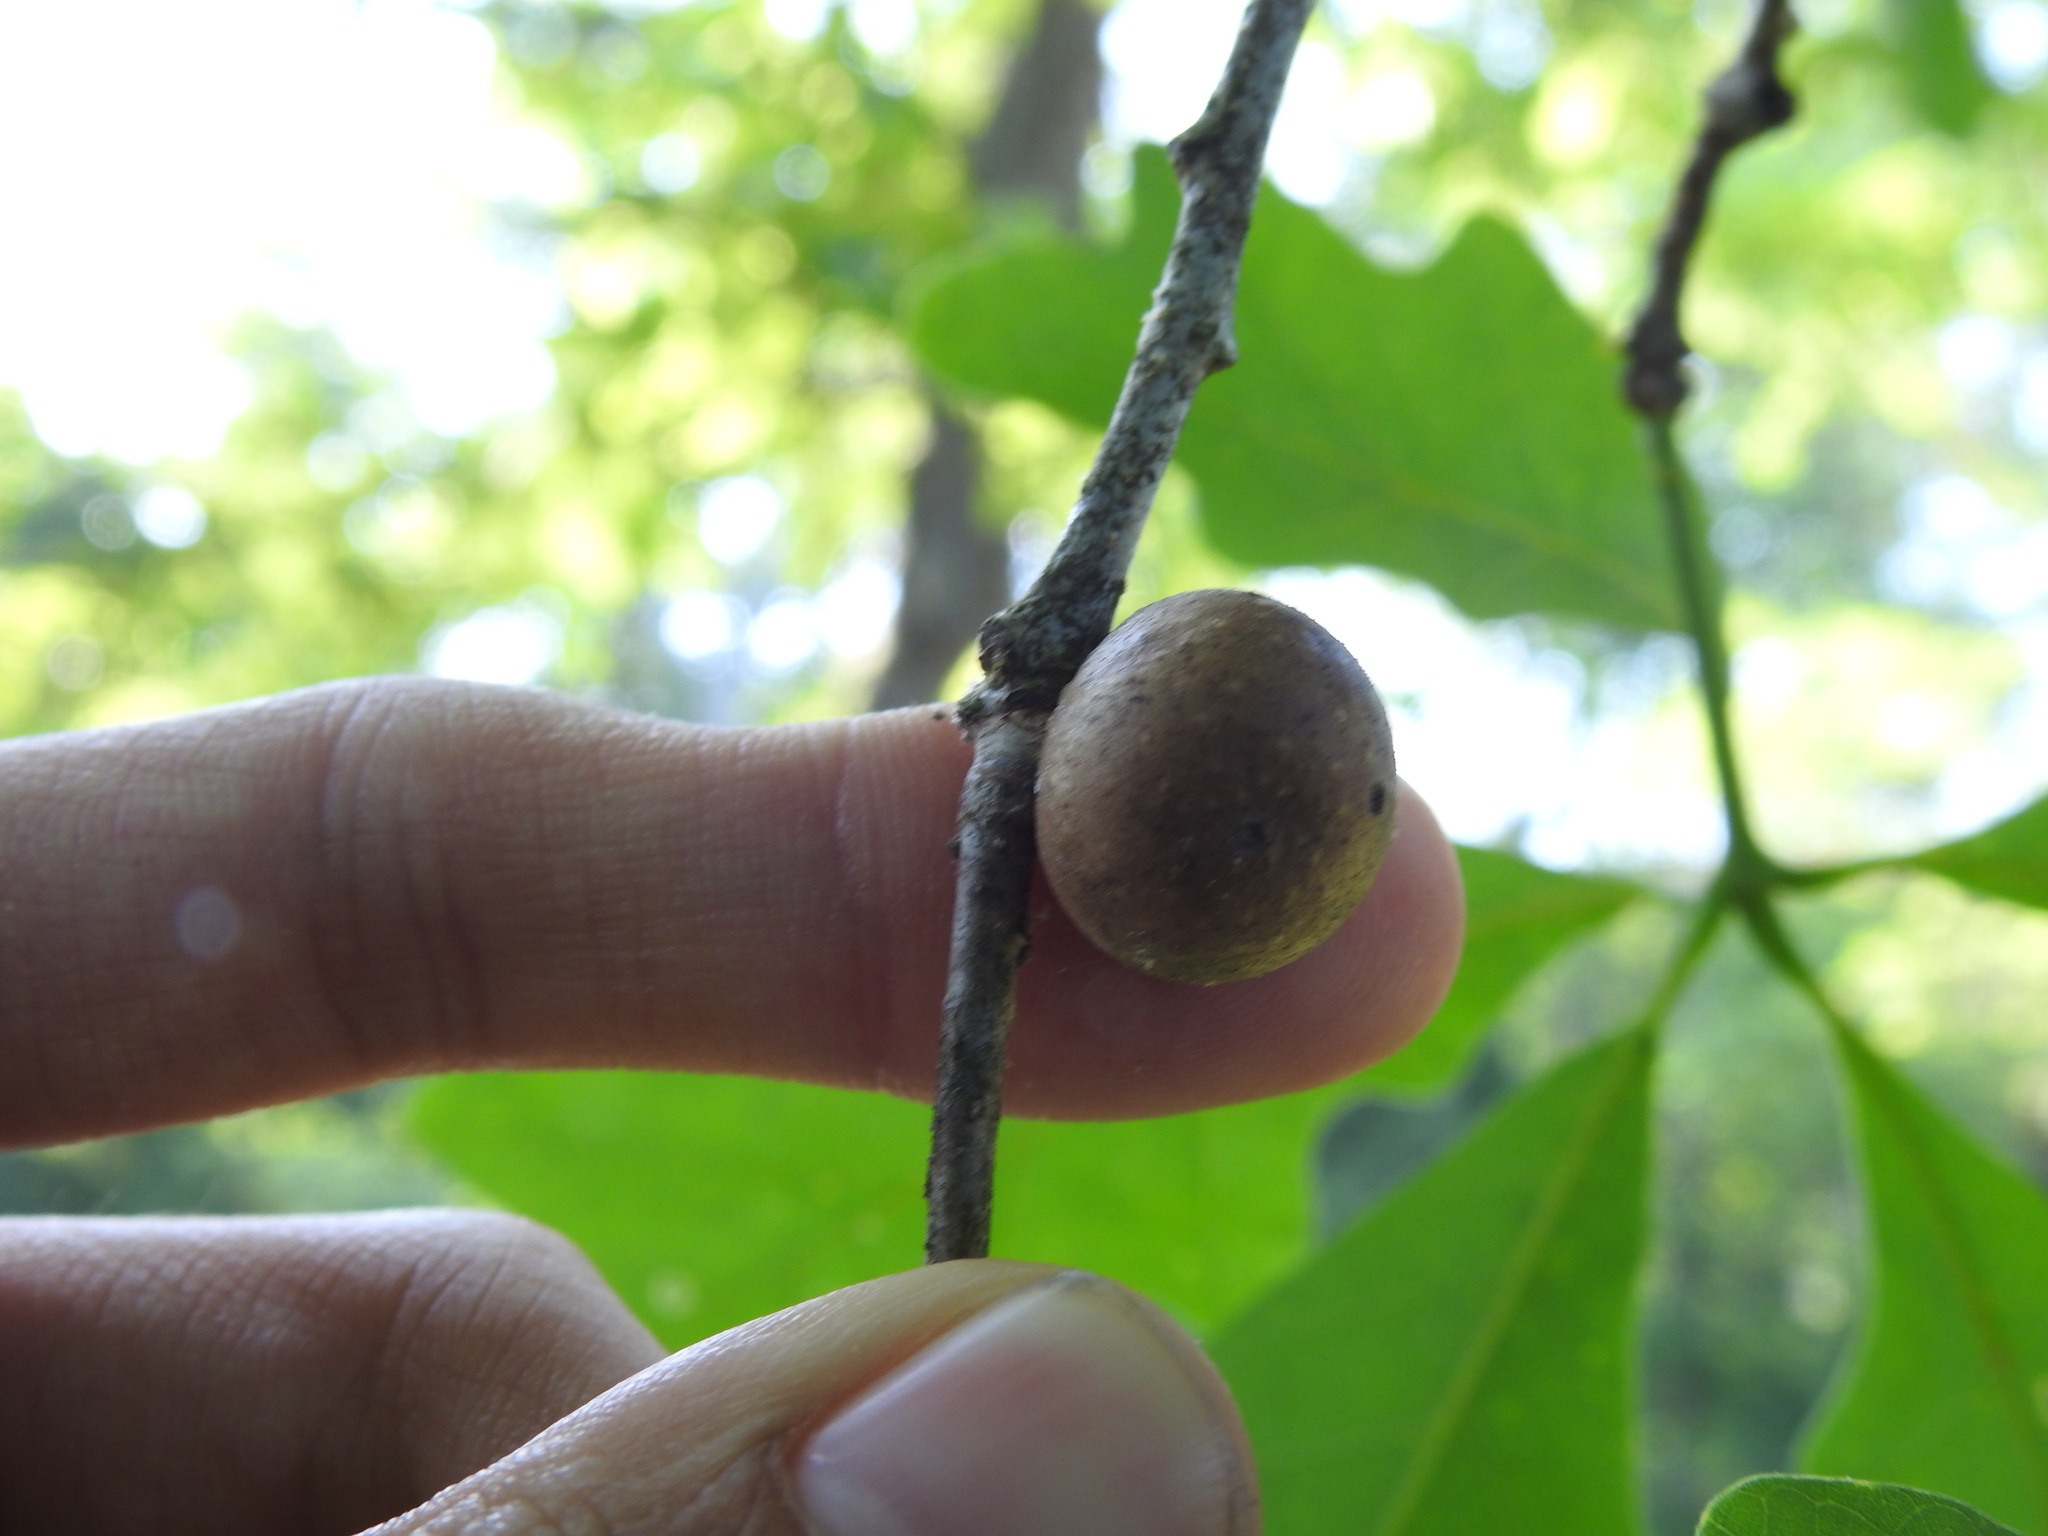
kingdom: Animalia
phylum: Arthropoda
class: Insecta
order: Hymenoptera
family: Cynipidae
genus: Disholcaspis
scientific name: Disholcaspis quercusglobulus
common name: Round bullet gall wasp
